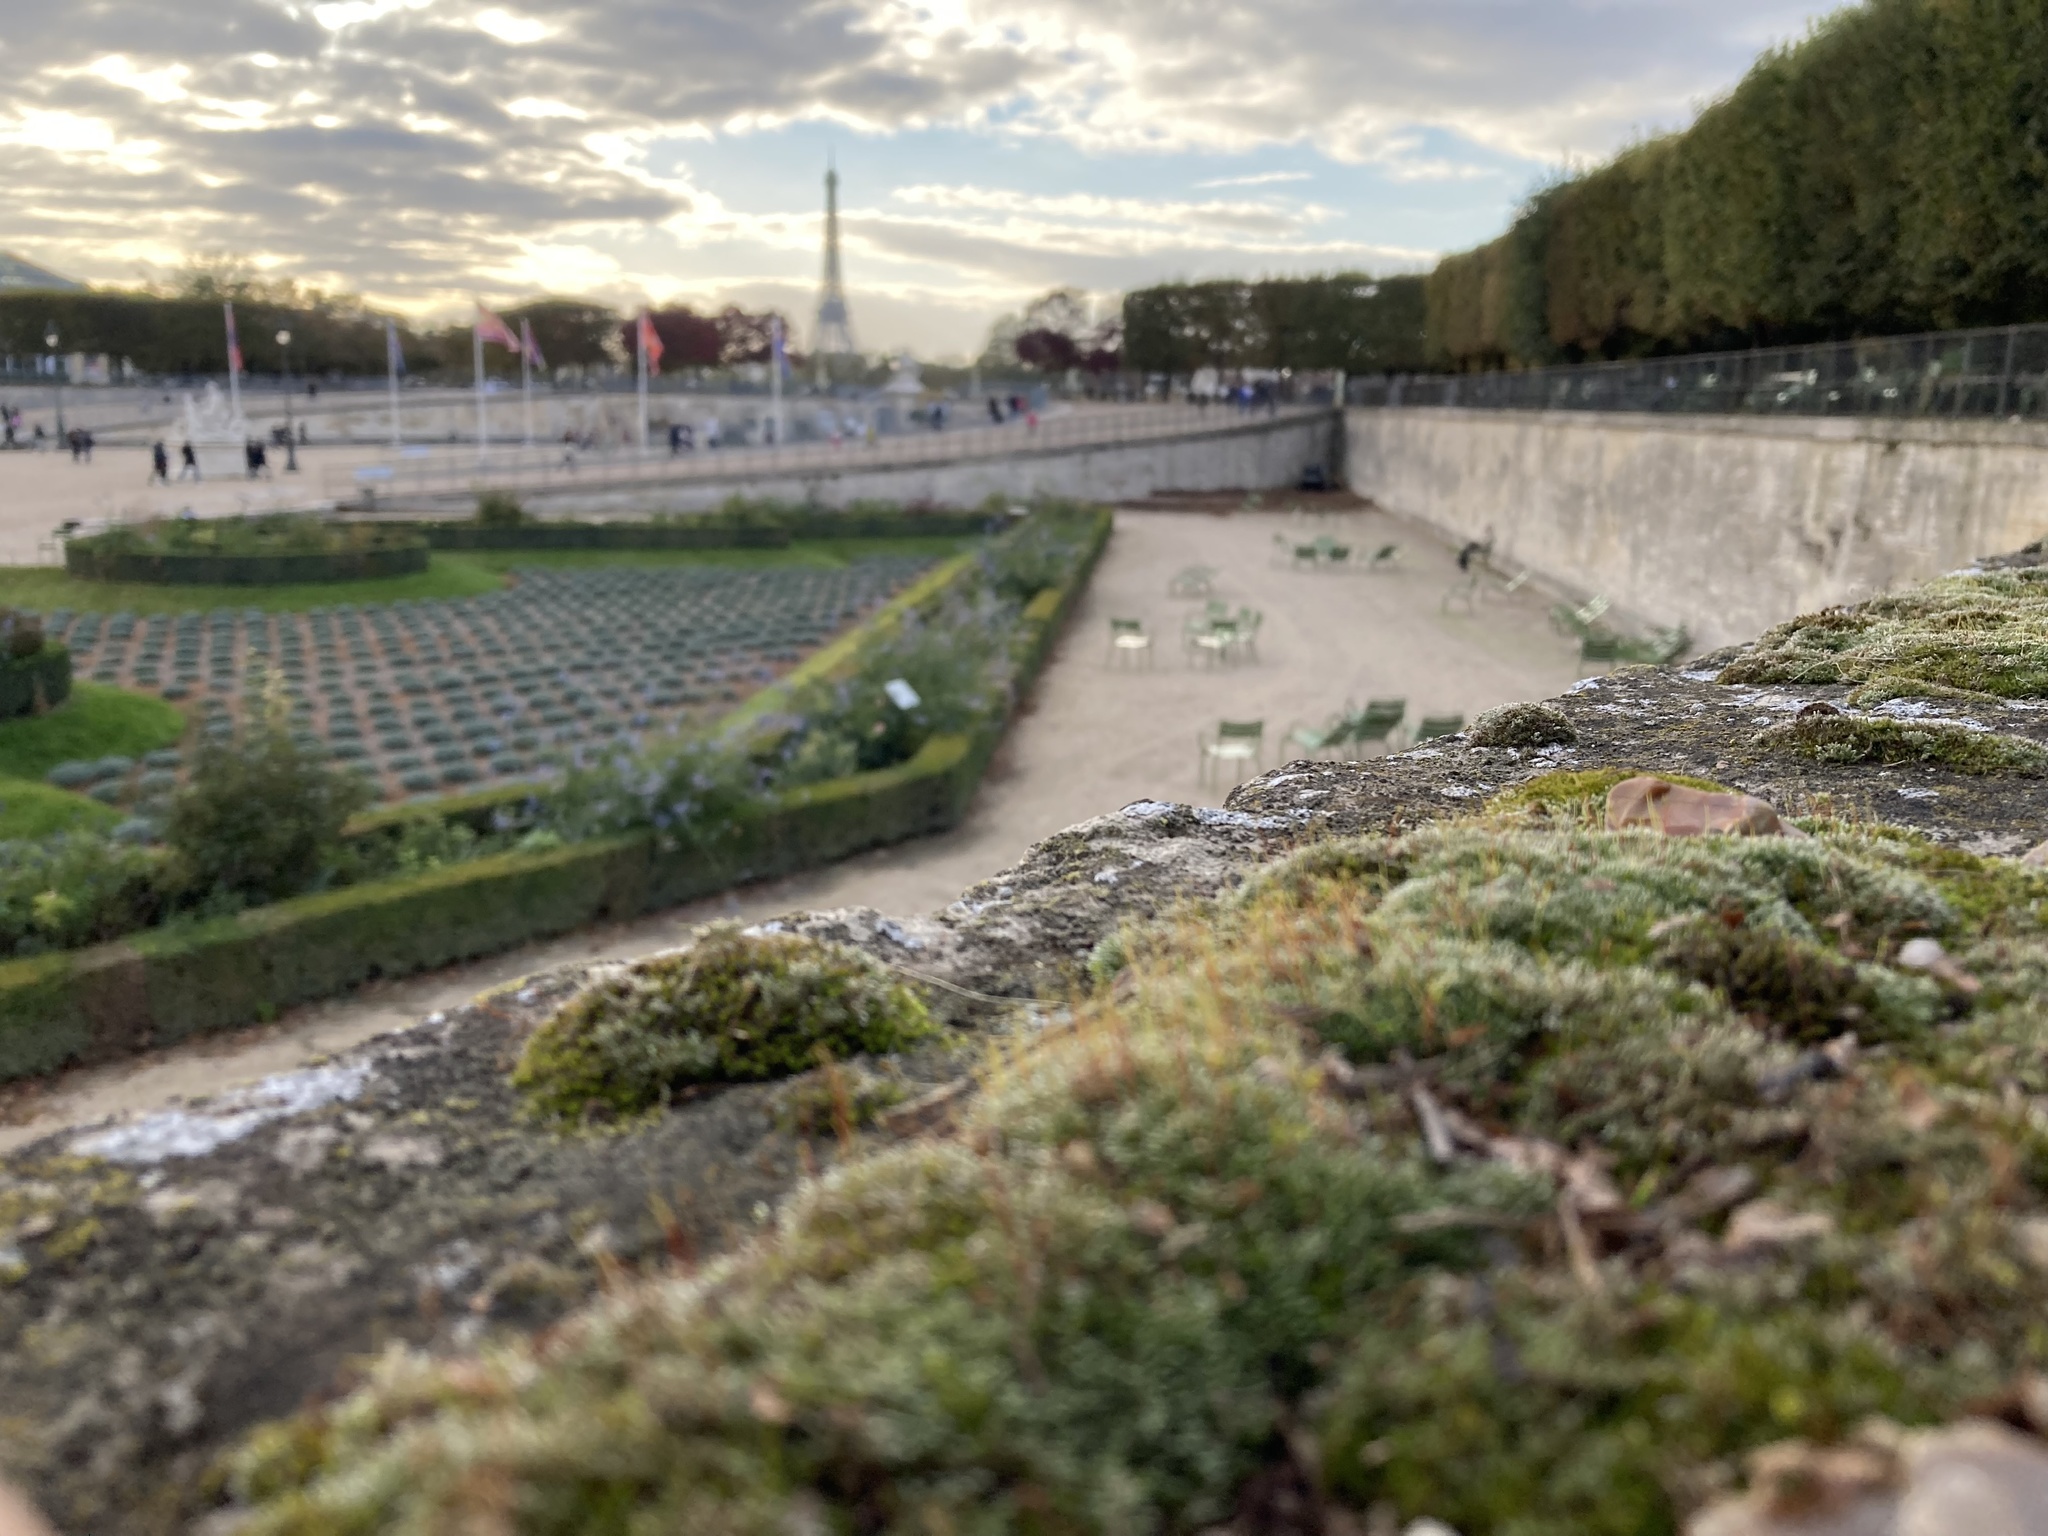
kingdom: Plantae
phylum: Bryophyta
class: Bryopsida
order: Bryales
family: Bryaceae
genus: Bryum
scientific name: Bryum argenteum
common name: Silver-moss
